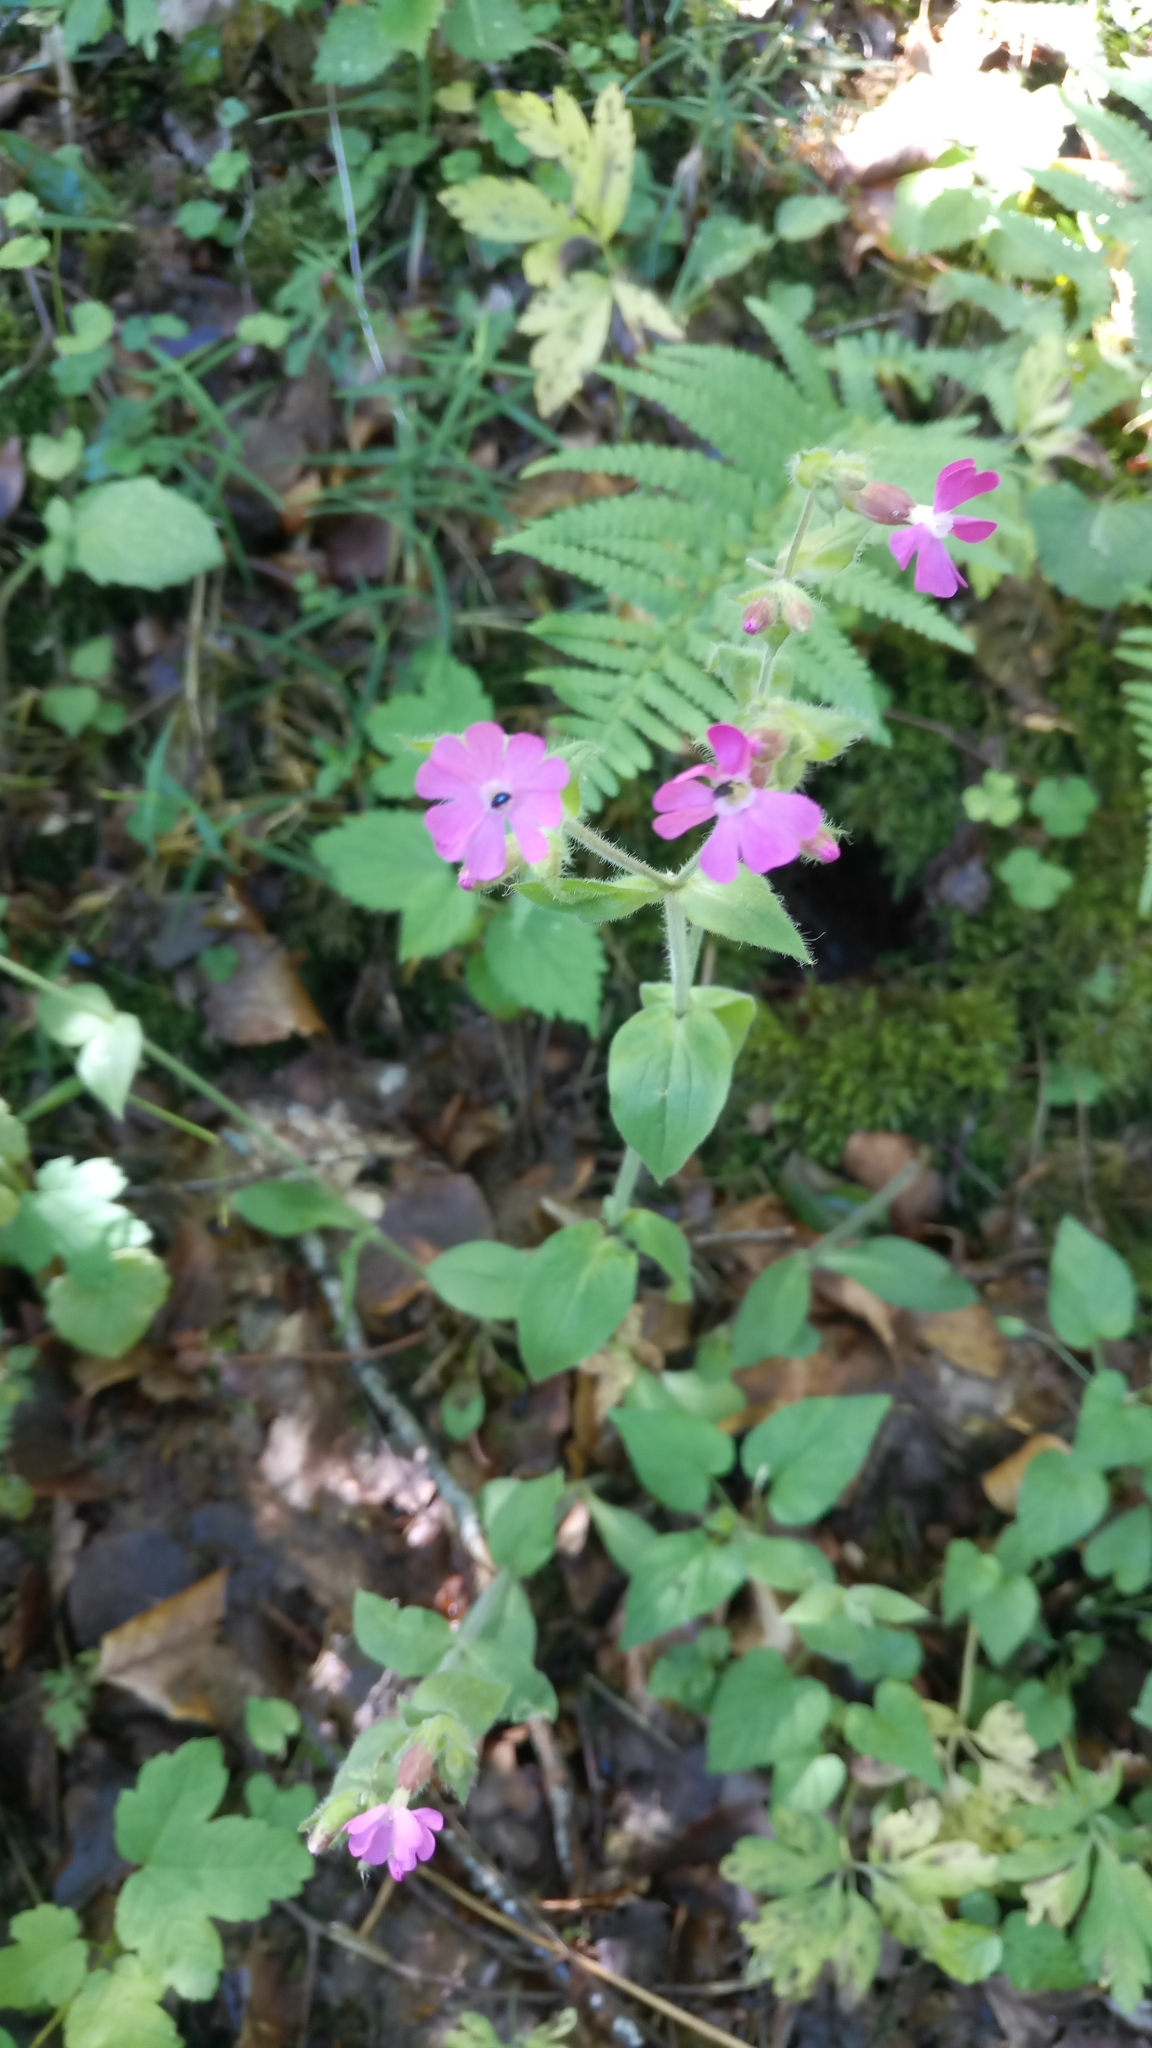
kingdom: Plantae
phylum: Tracheophyta
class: Magnoliopsida
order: Caryophyllales
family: Caryophyllaceae
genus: Silene
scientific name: Silene dioica
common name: Red campion
